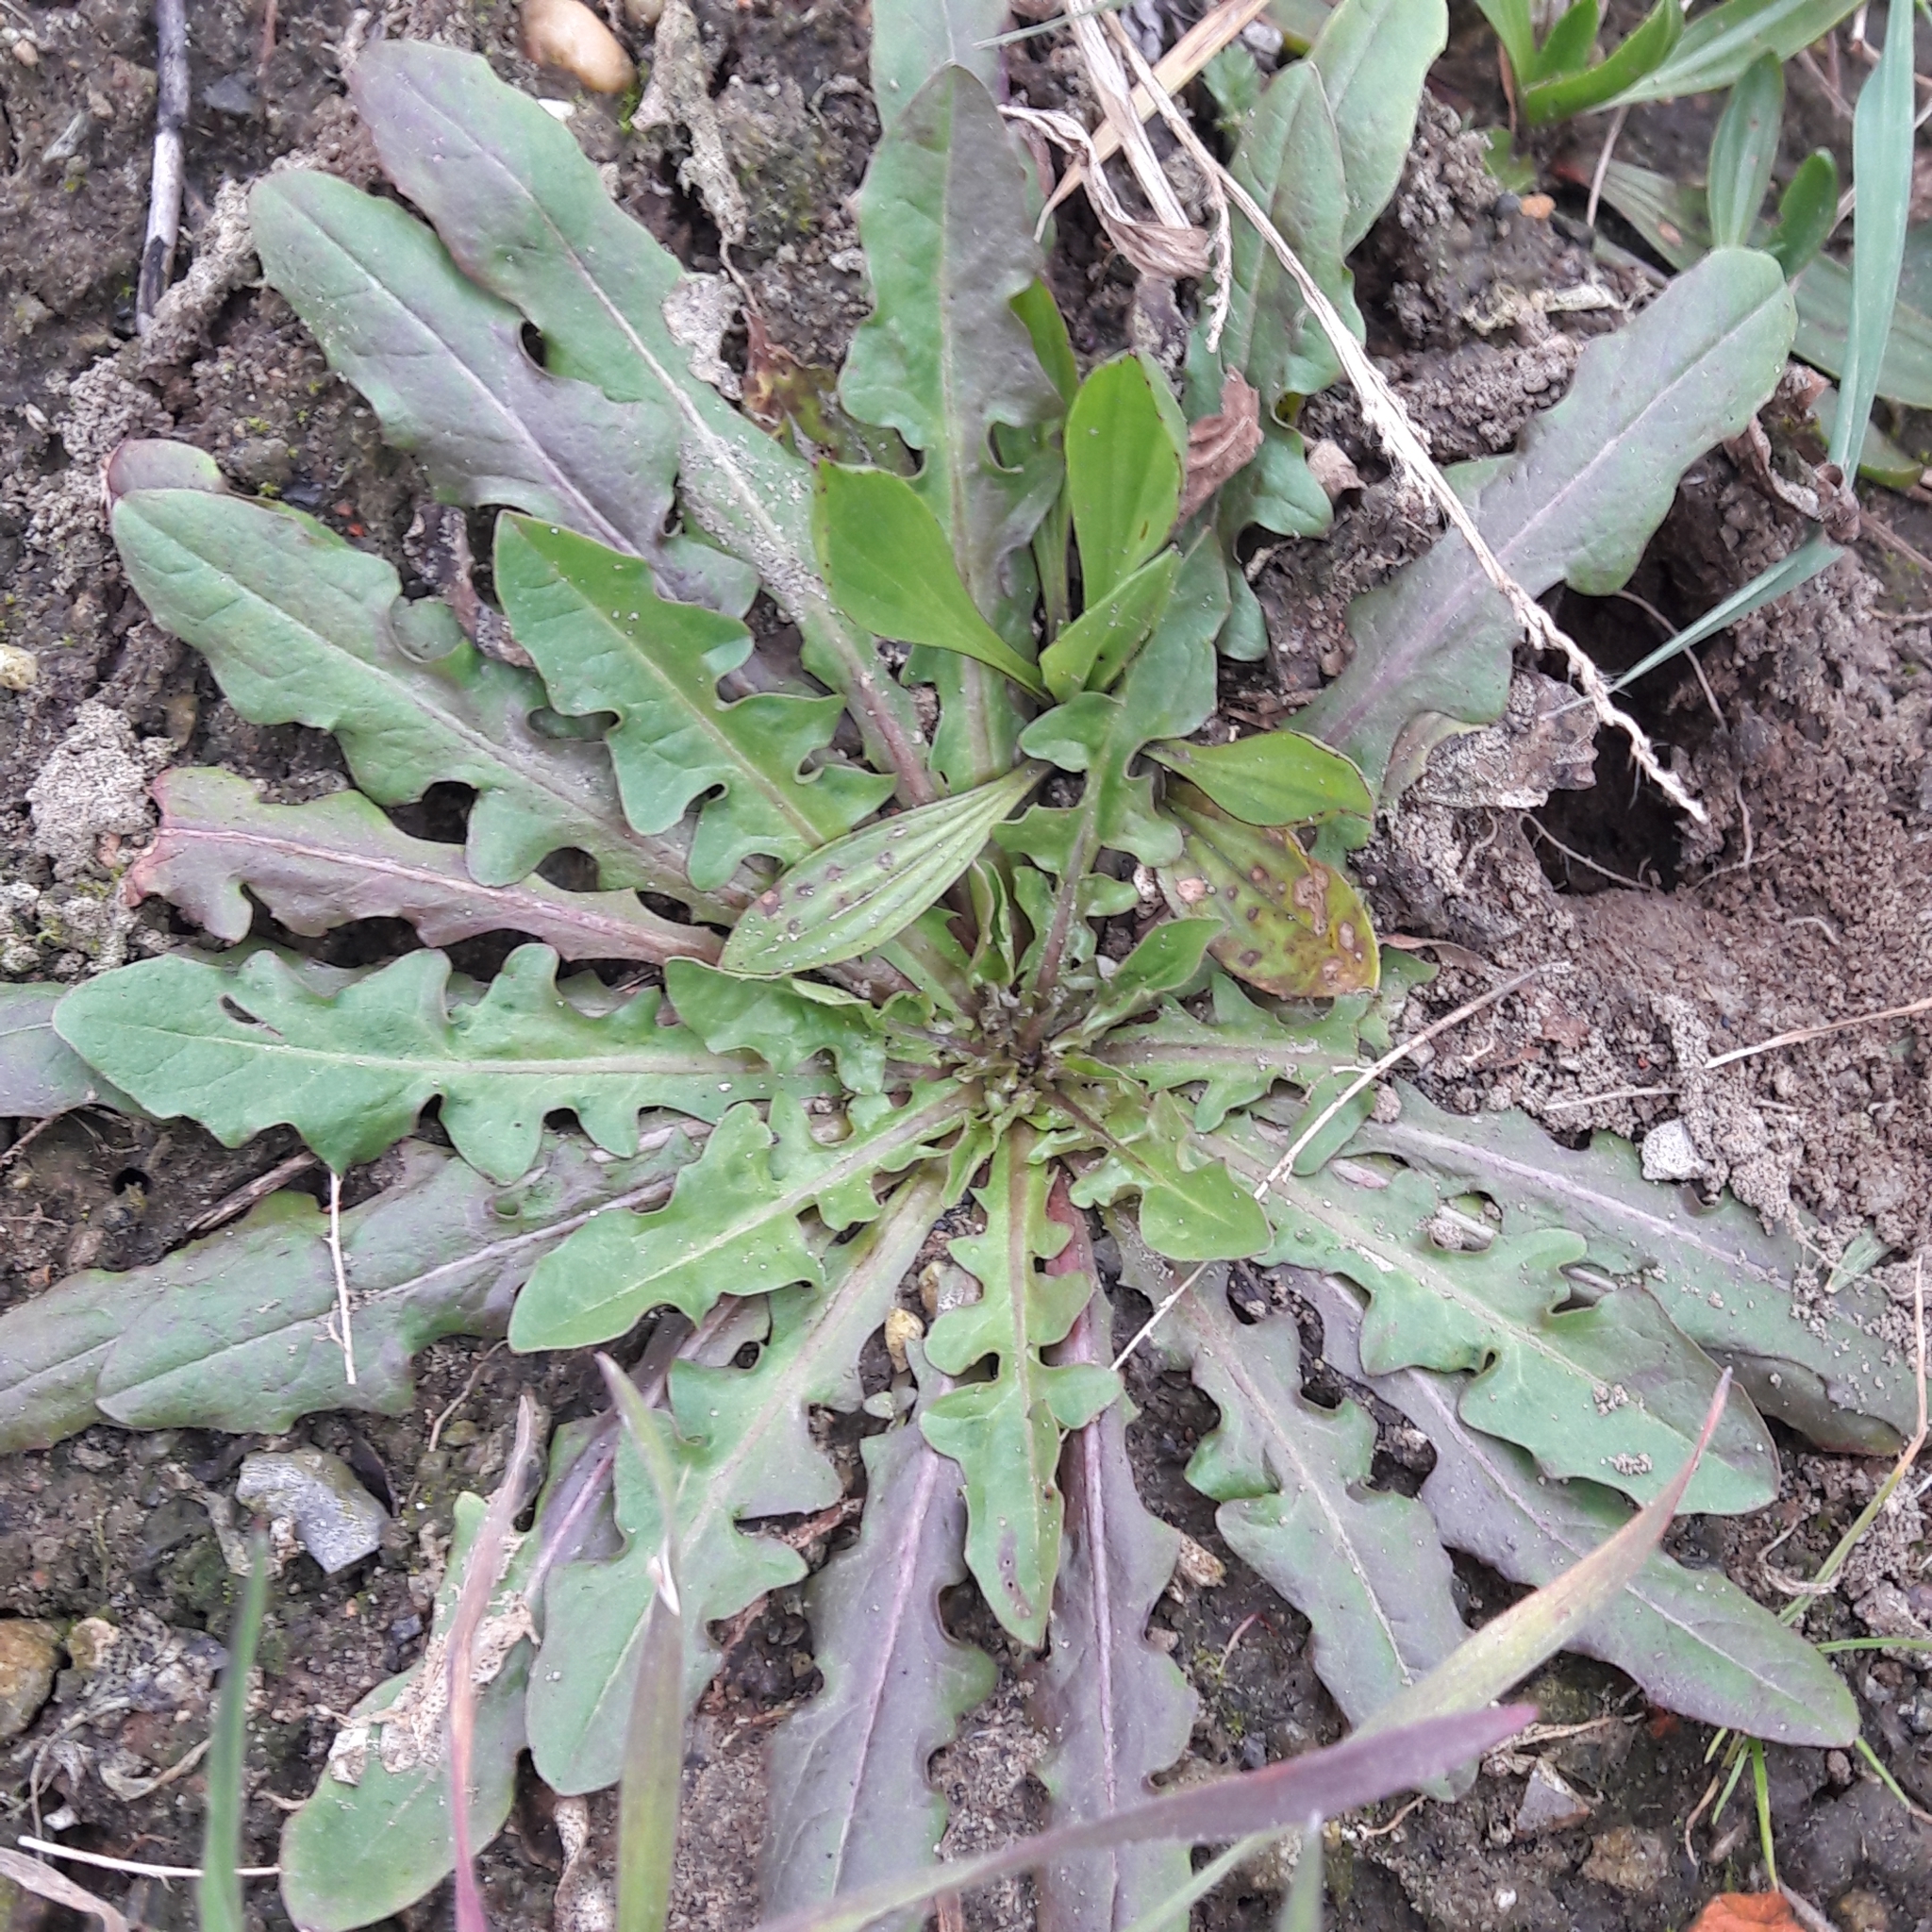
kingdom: Plantae
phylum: Tracheophyta
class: Magnoliopsida
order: Asterales
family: Asteraceae
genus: Taraxacum
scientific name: Taraxacum officinale
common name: Common dandelion
